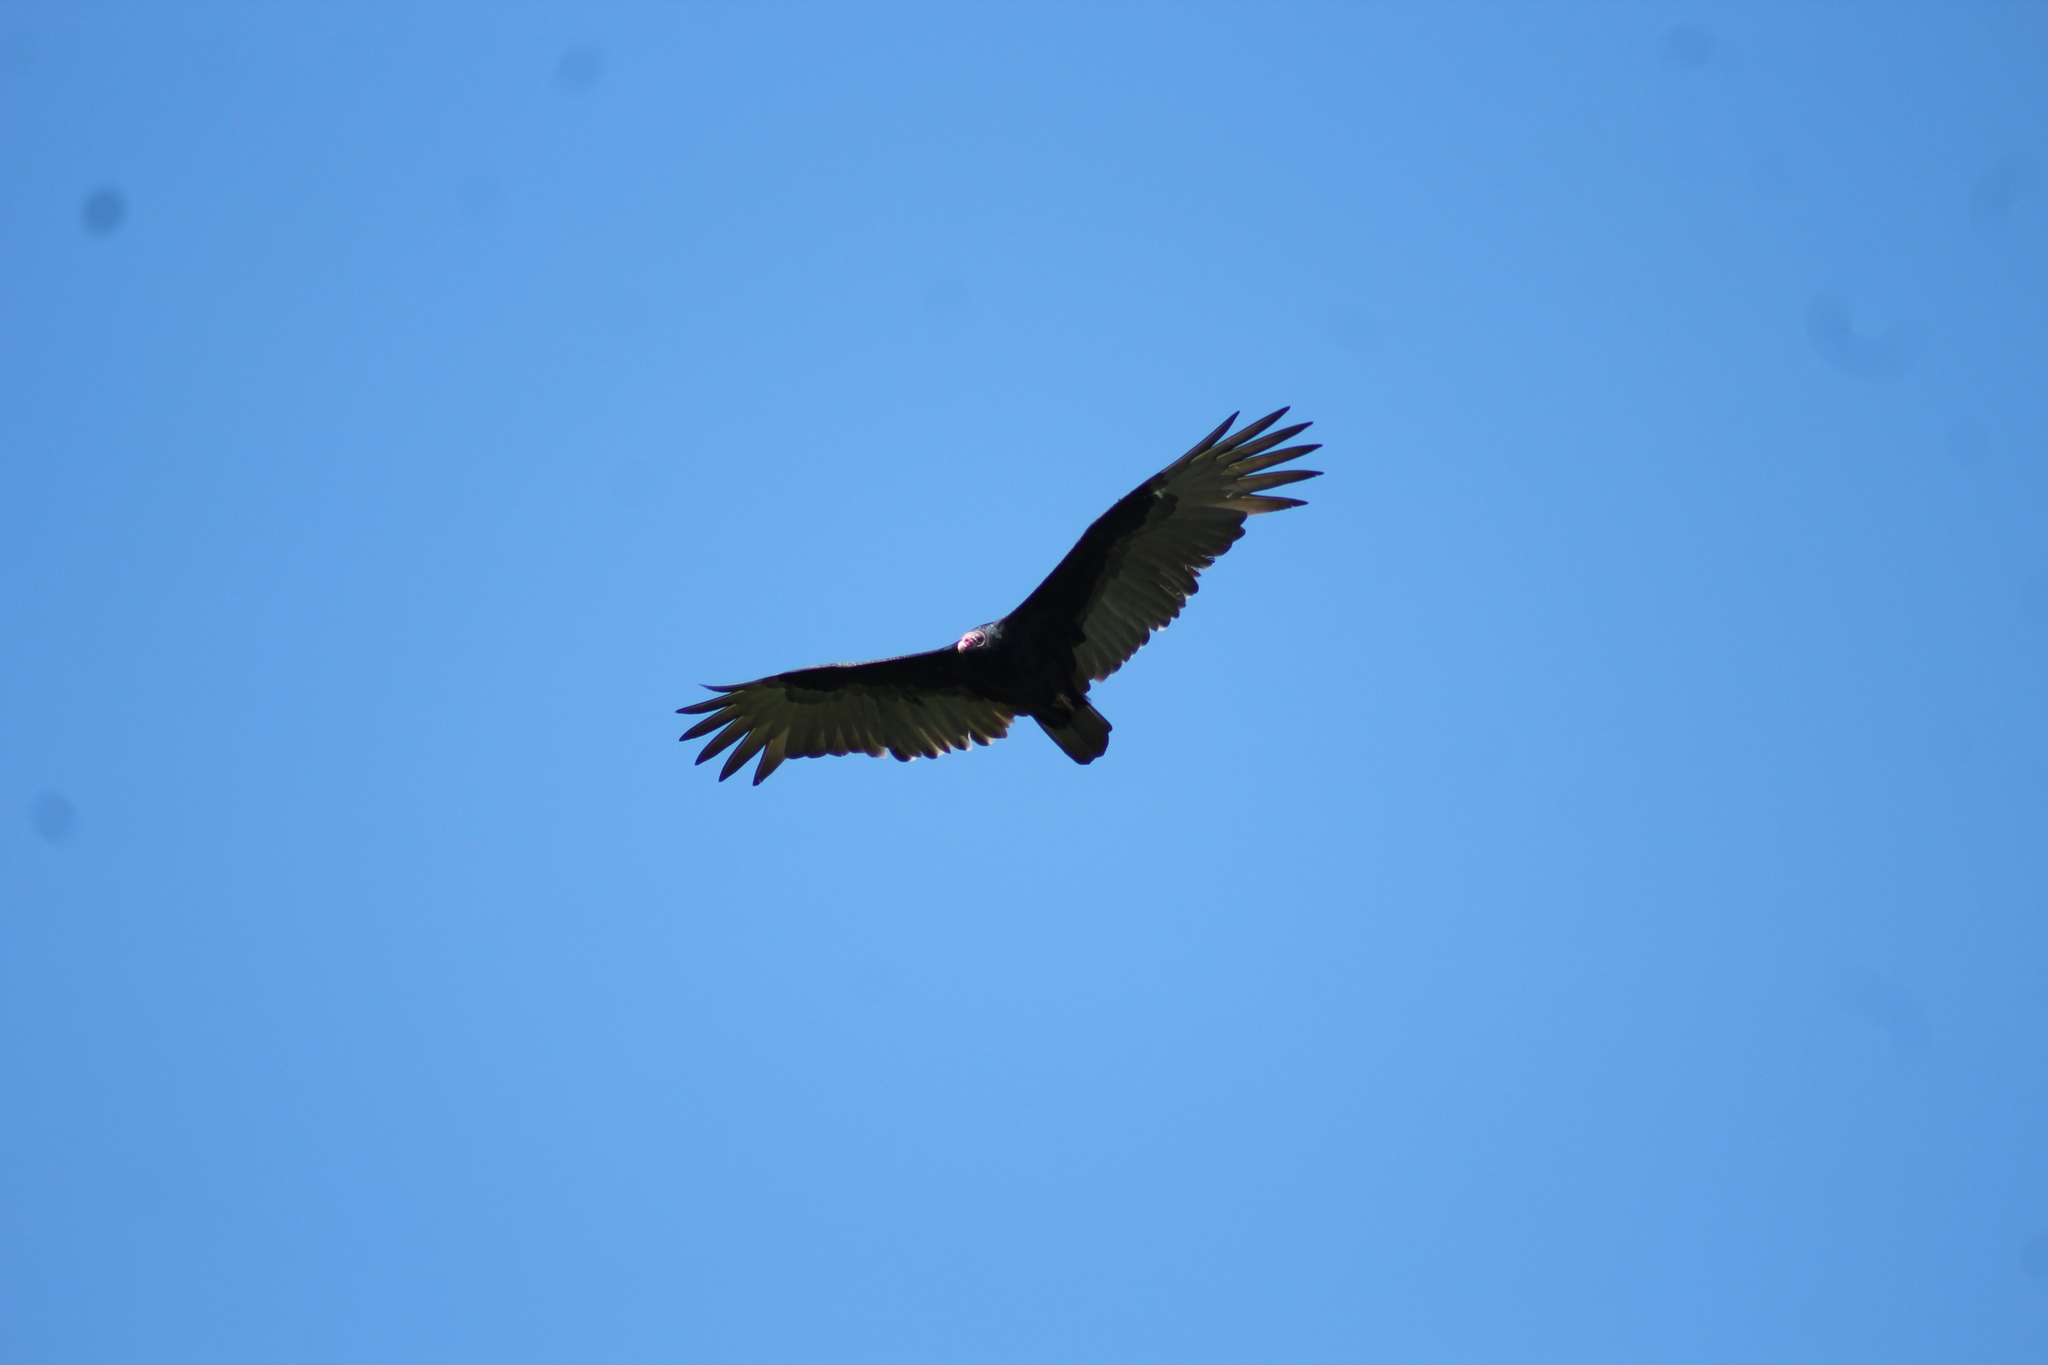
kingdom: Animalia
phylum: Chordata
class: Aves
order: Accipitriformes
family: Cathartidae
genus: Cathartes
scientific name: Cathartes aura
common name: Turkey vulture
